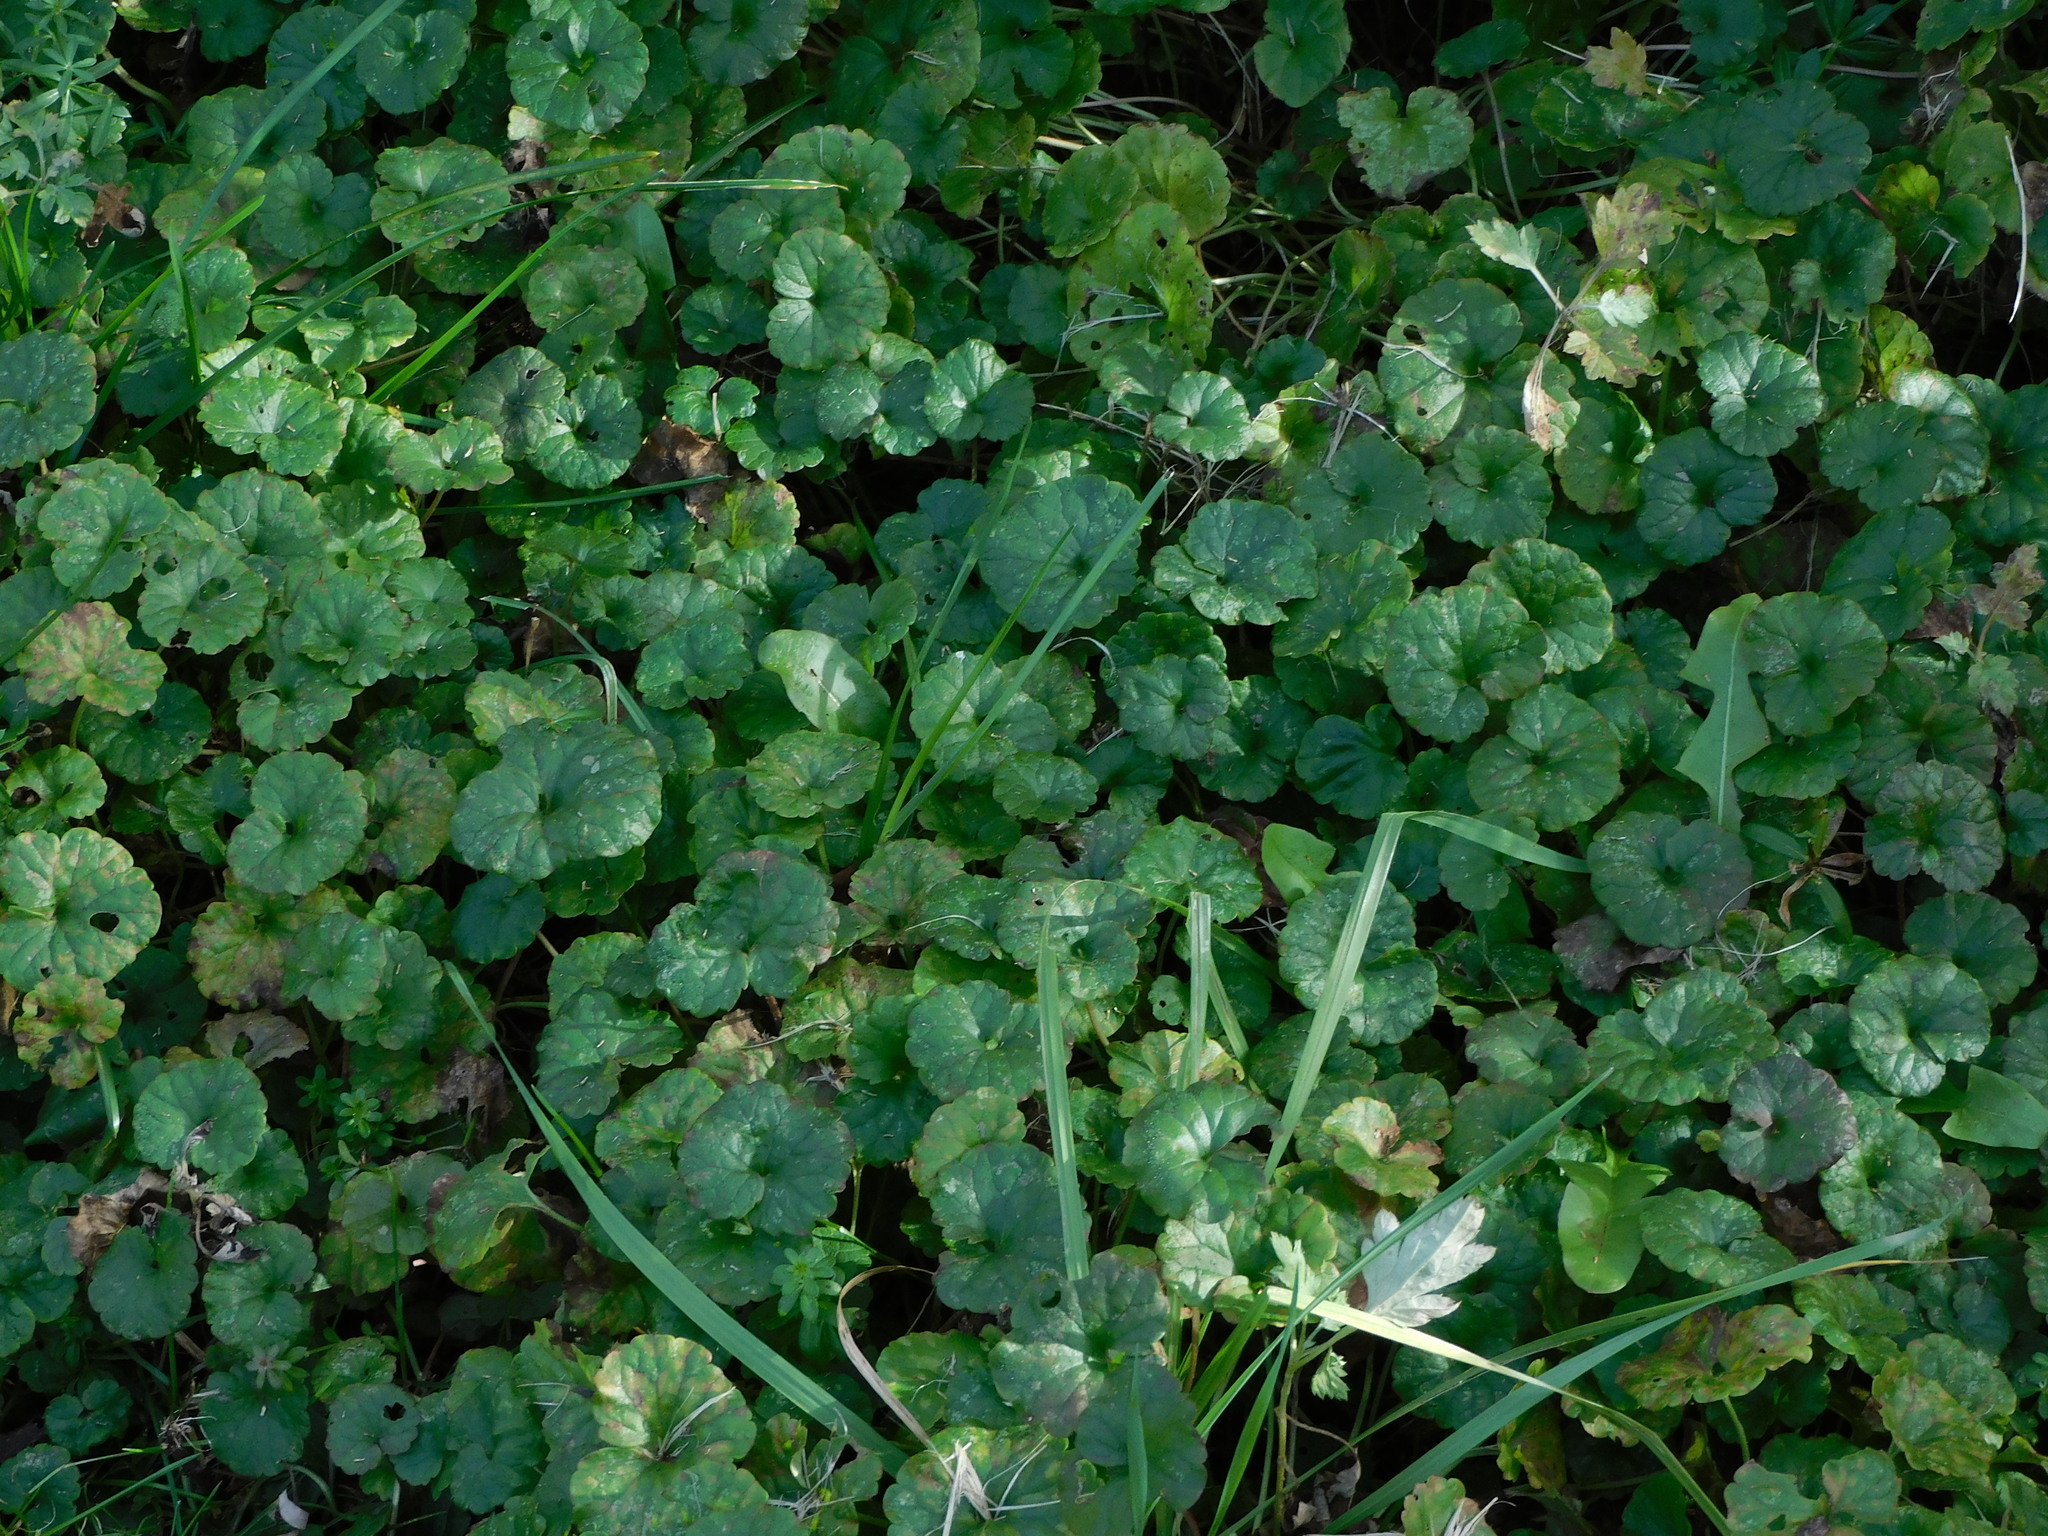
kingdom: Plantae
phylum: Tracheophyta
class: Magnoliopsida
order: Lamiales
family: Lamiaceae
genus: Glechoma
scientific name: Glechoma hederacea
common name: Ground ivy
